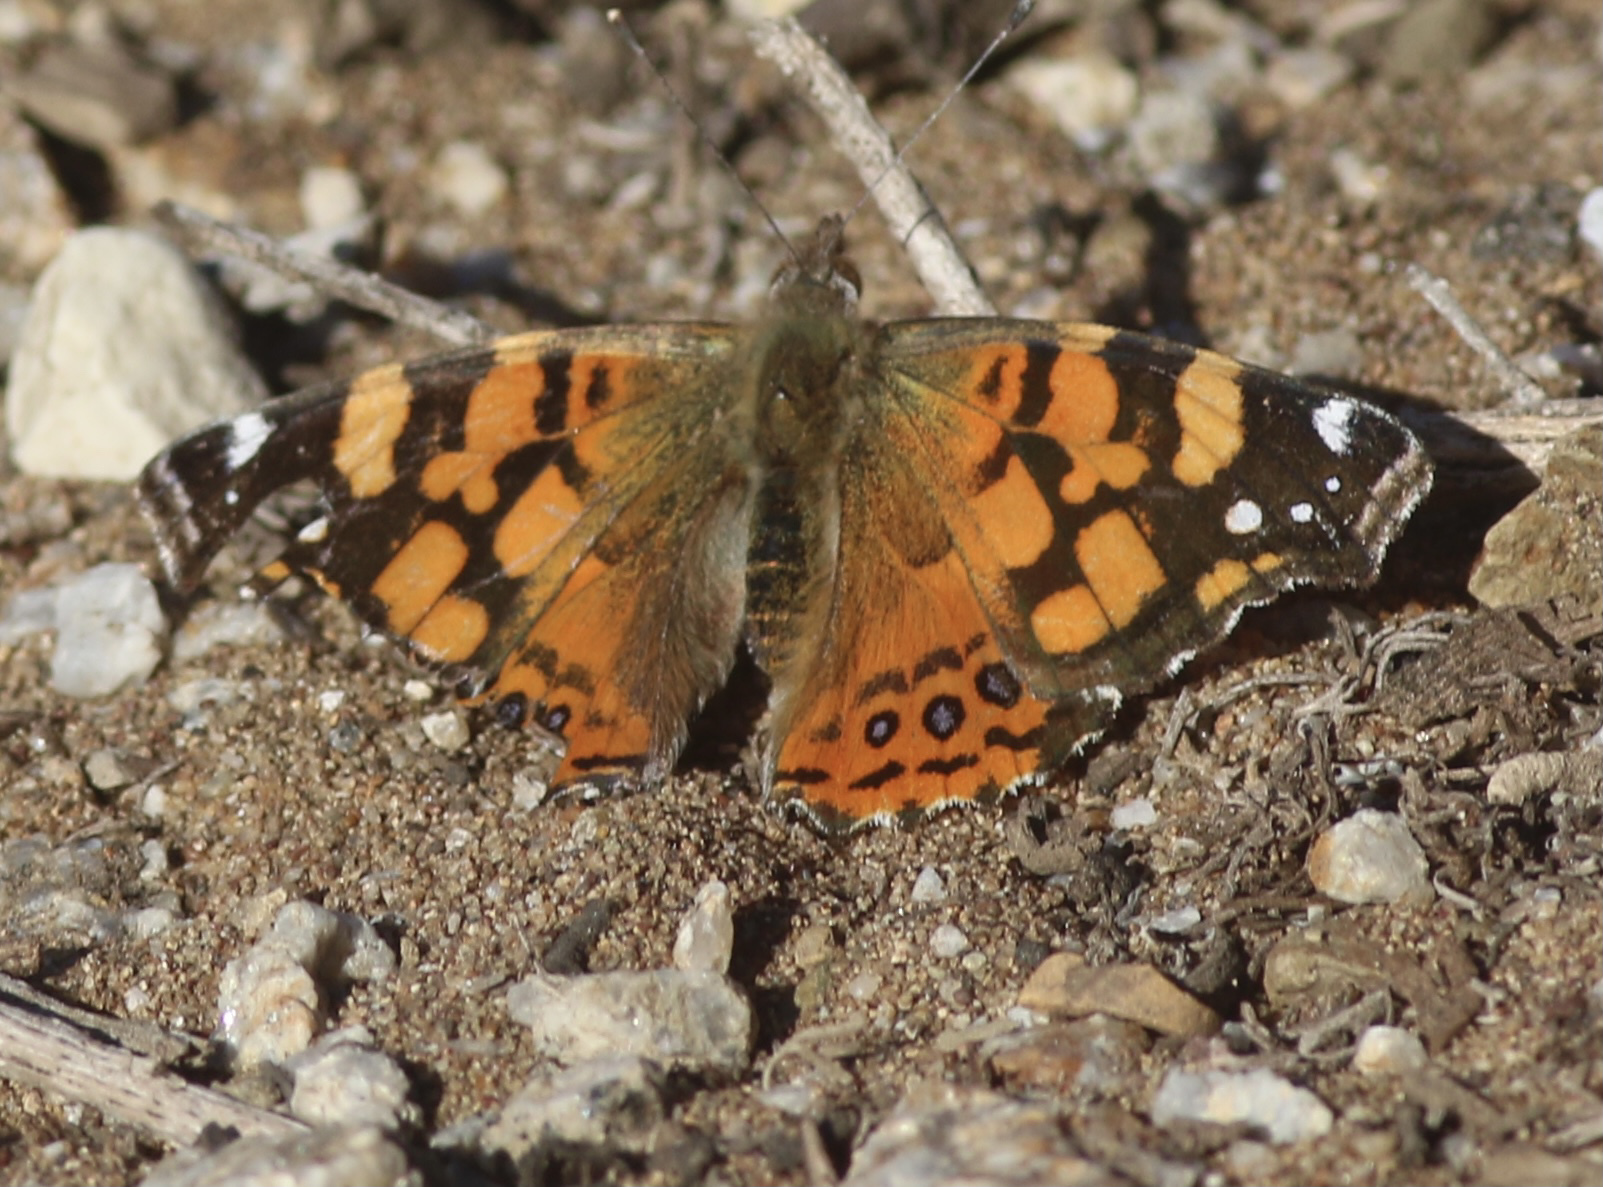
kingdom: Animalia
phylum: Arthropoda
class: Insecta
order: Lepidoptera
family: Nymphalidae
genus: Vanessa
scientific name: Vanessa annabella
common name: West coast lady
